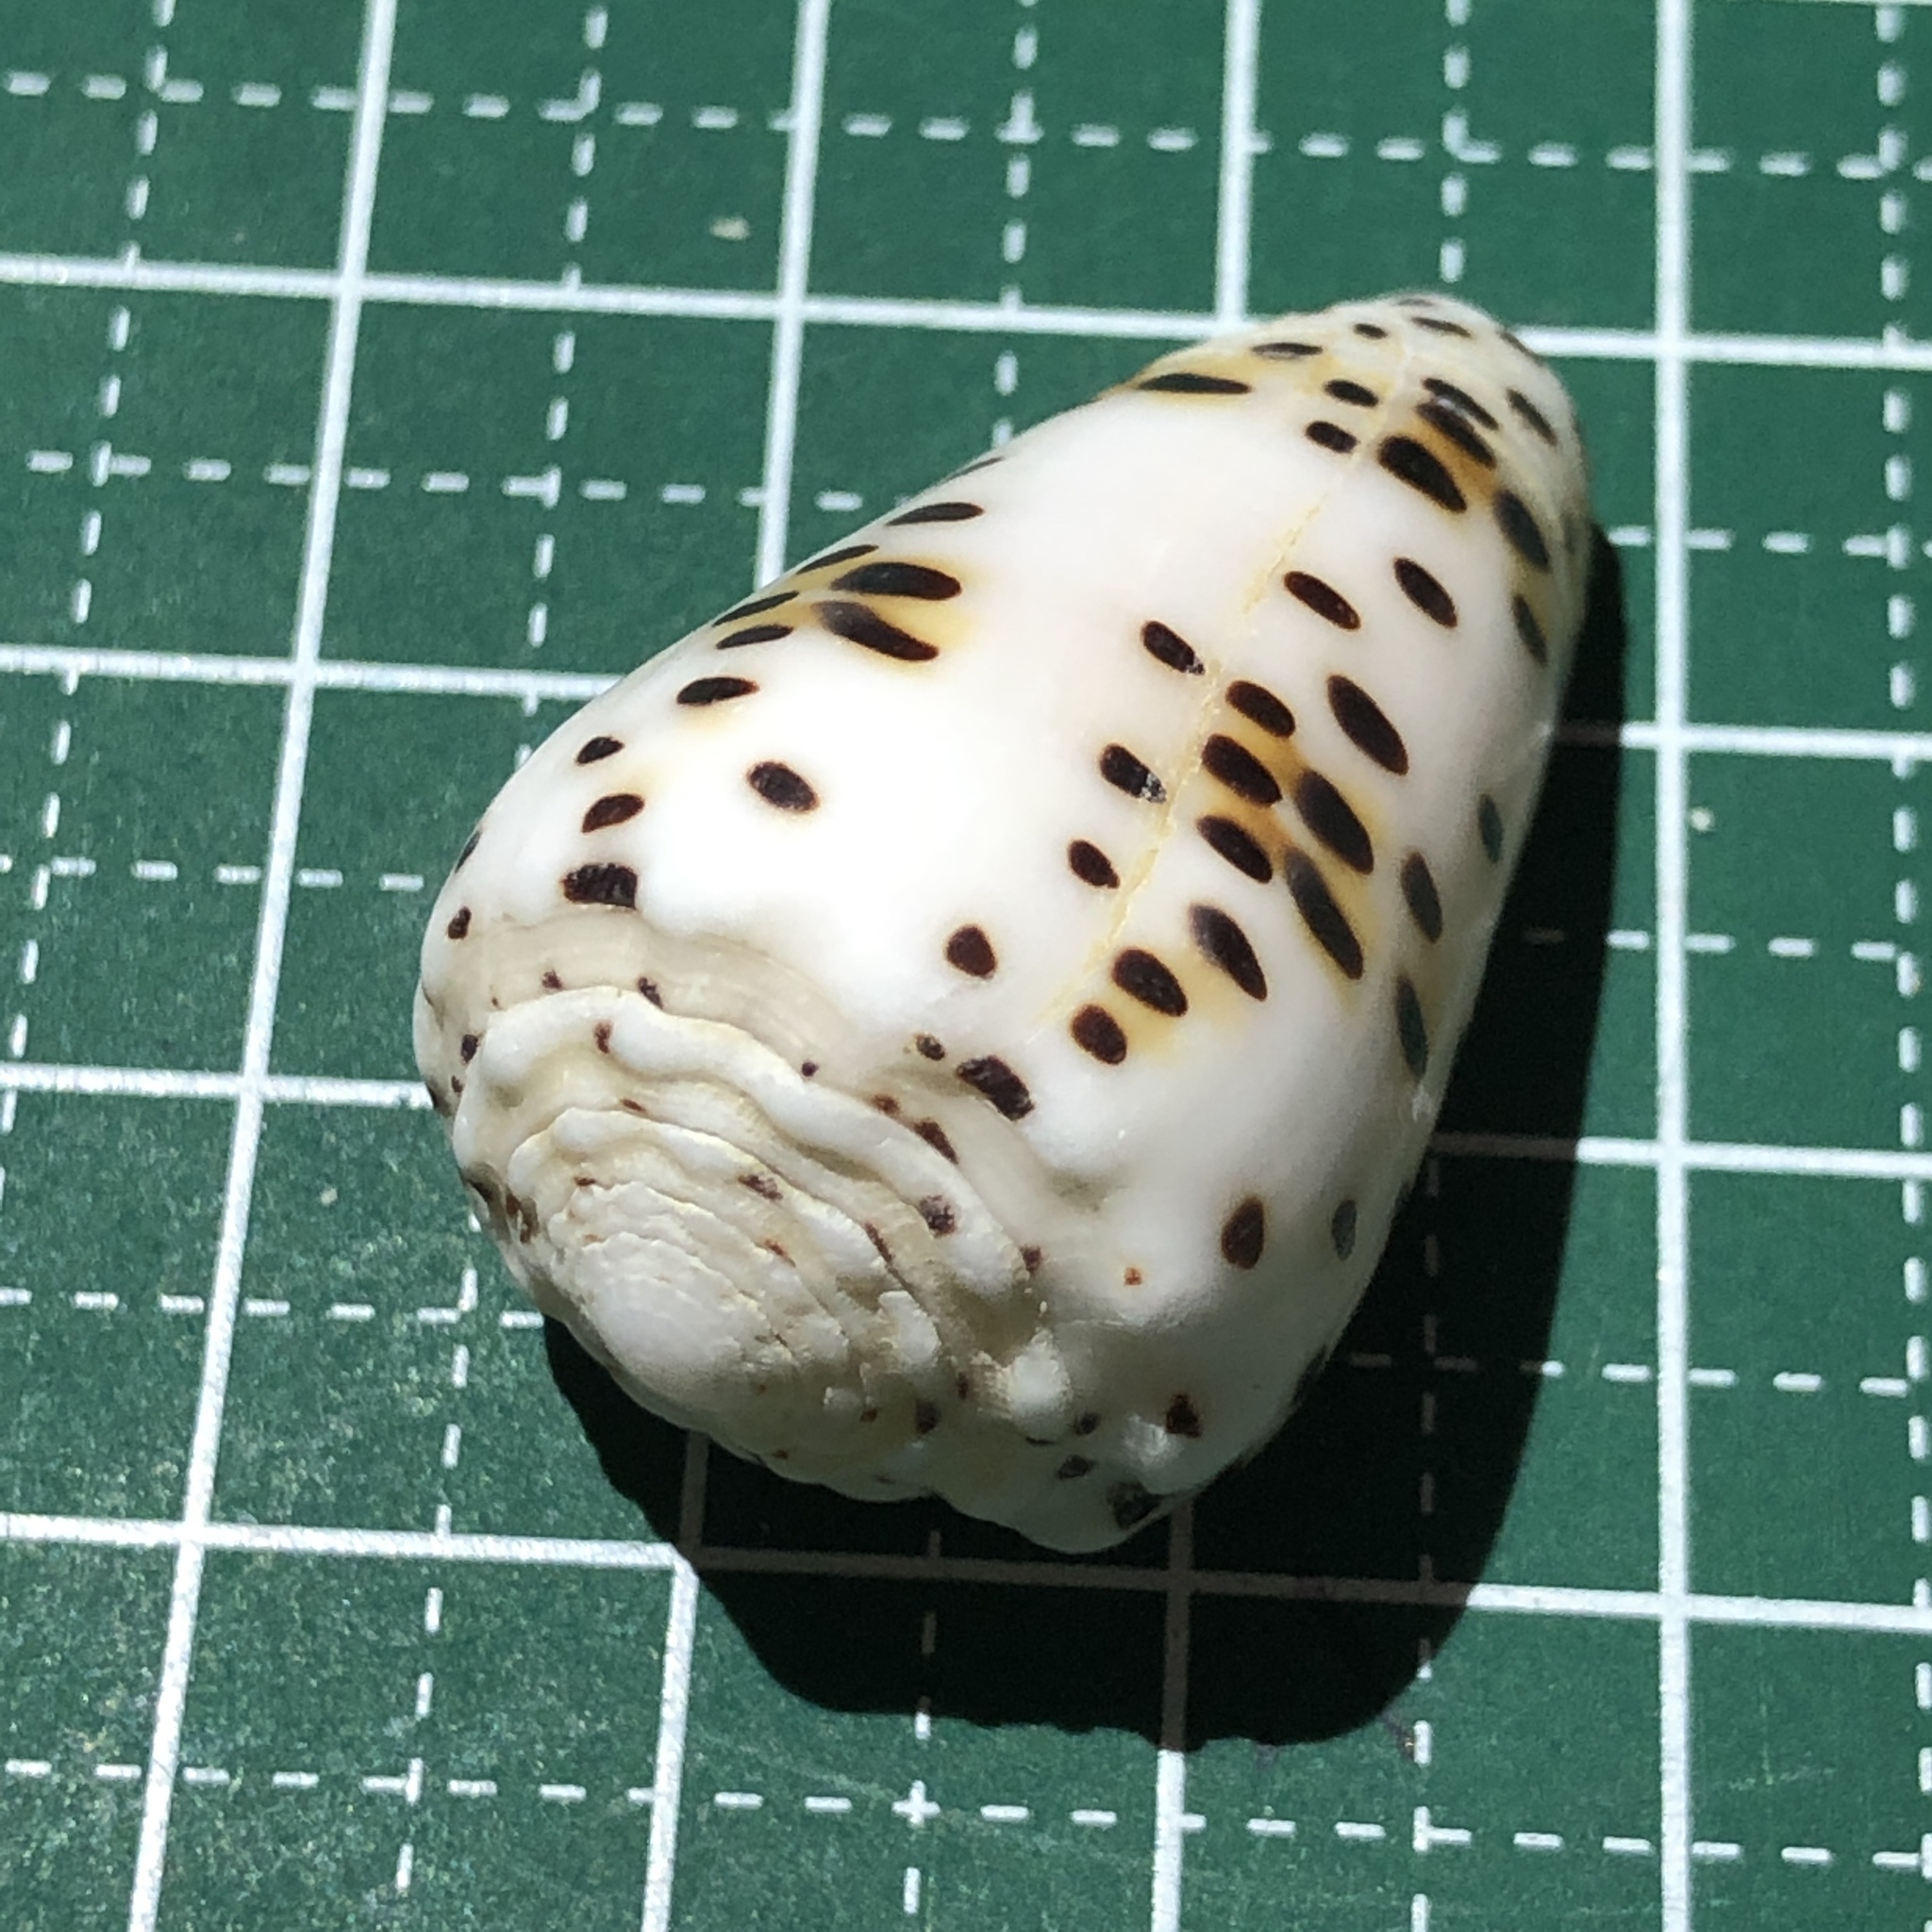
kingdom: Animalia
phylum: Mollusca
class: Gastropoda
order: Neogastropoda
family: Conidae
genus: Conus
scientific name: Conus pulicarius
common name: Flea-bite cone
